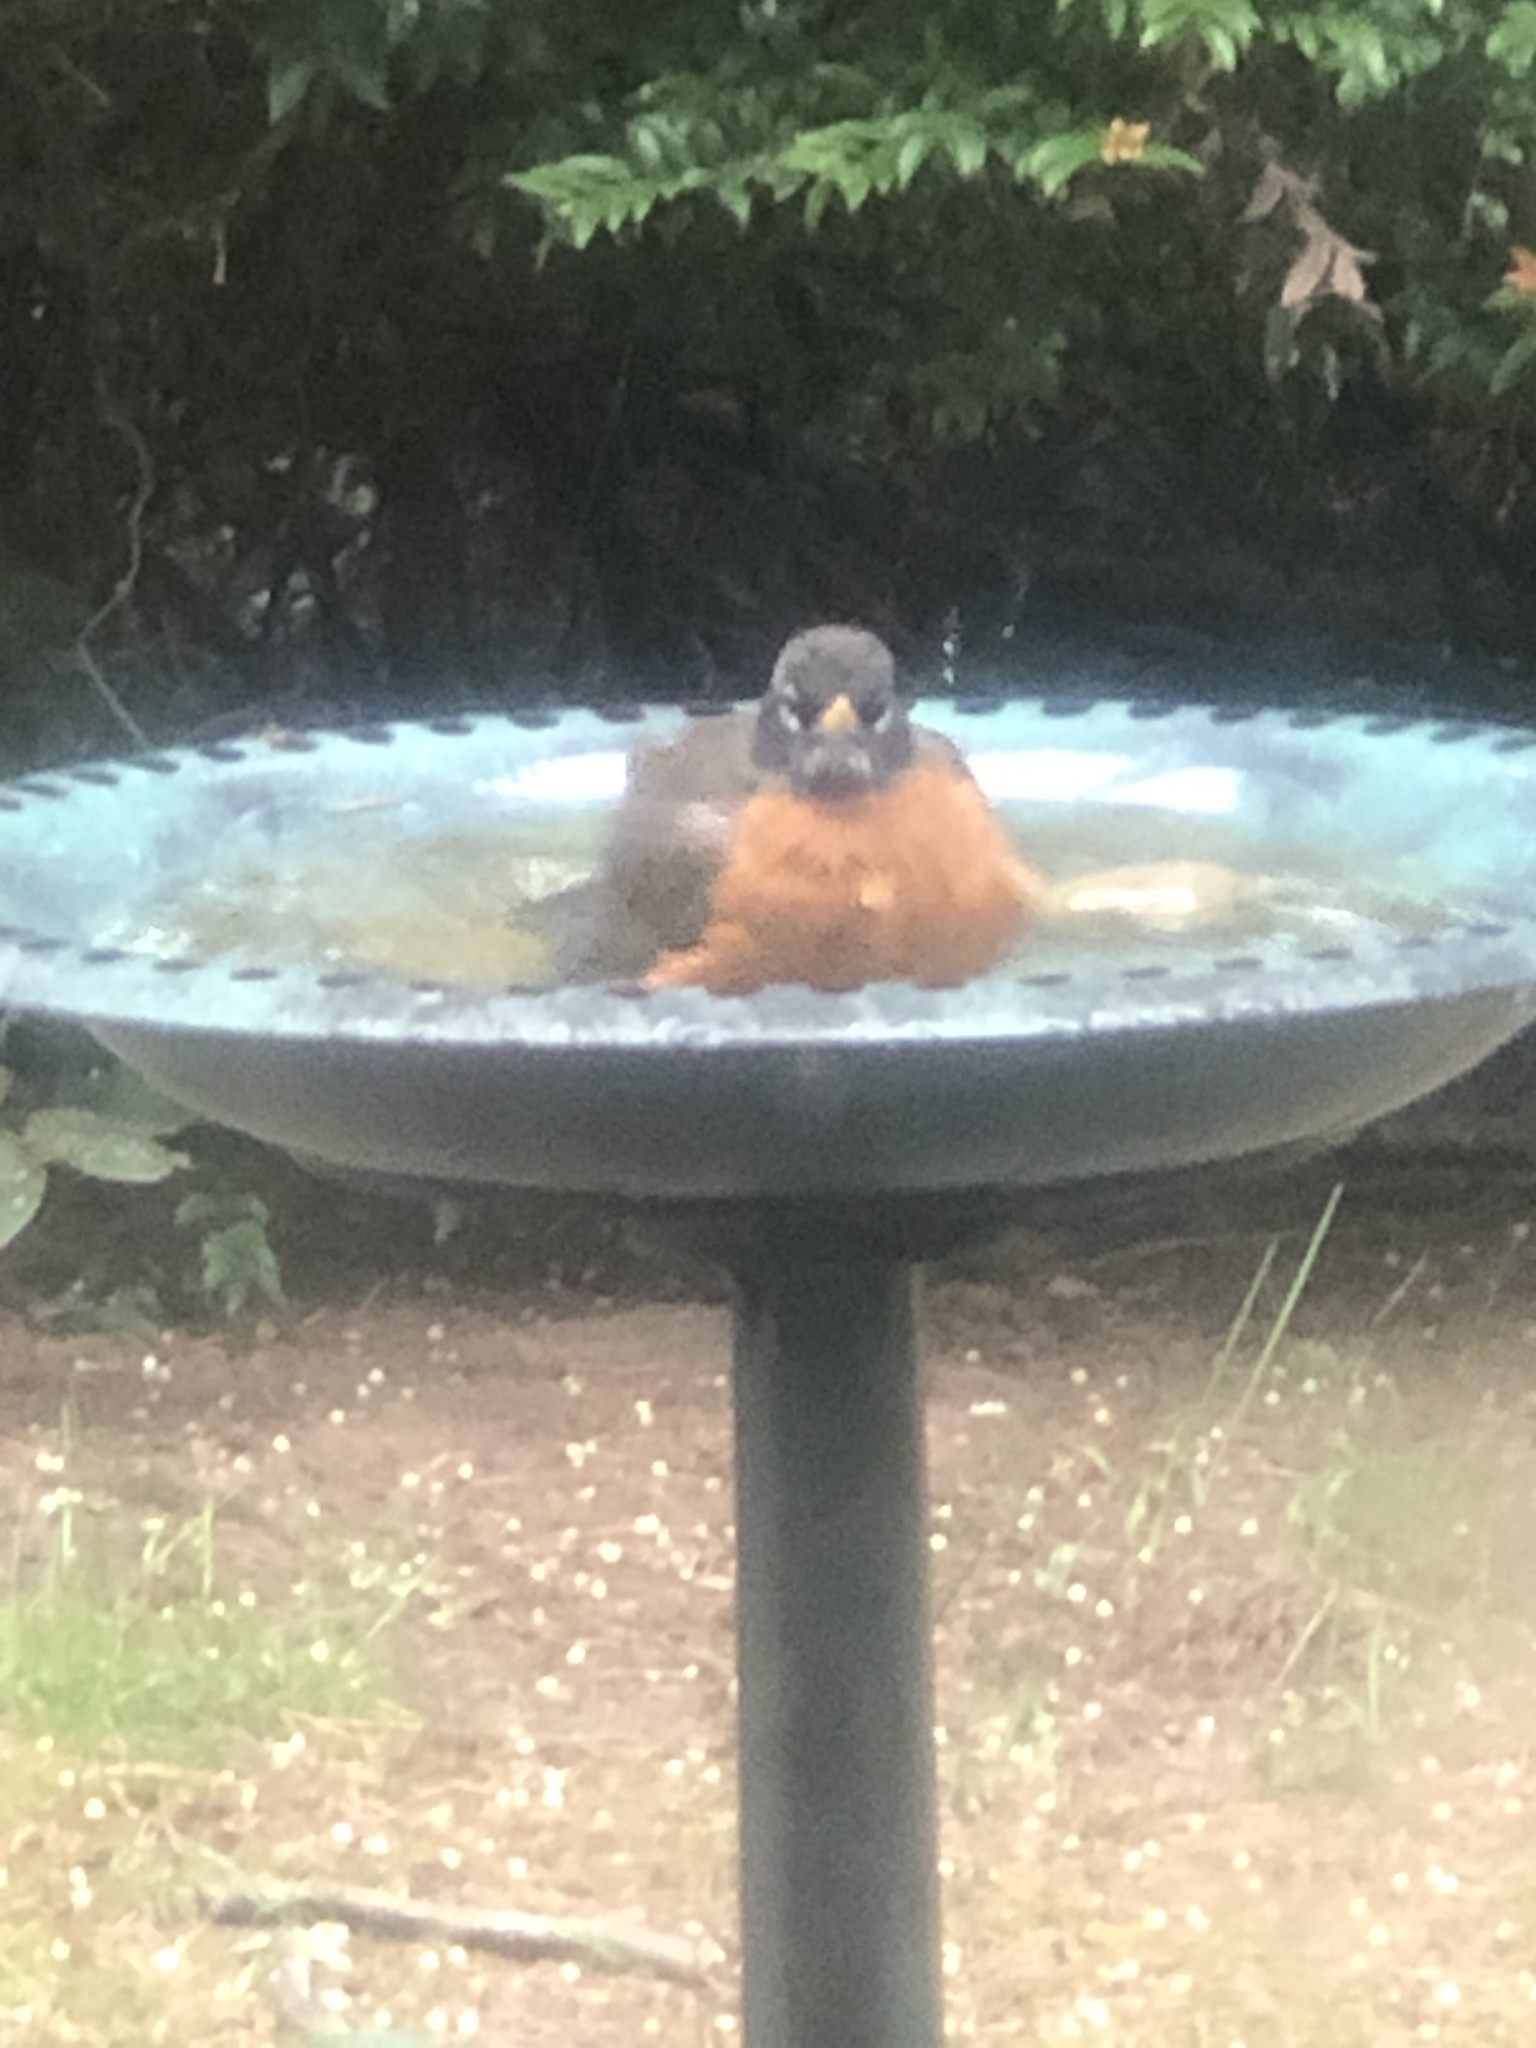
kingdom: Animalia
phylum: Chordata
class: Aves
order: Passeriformes
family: Turdidae
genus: Turdus
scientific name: Turdus migratorius
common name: American robin
